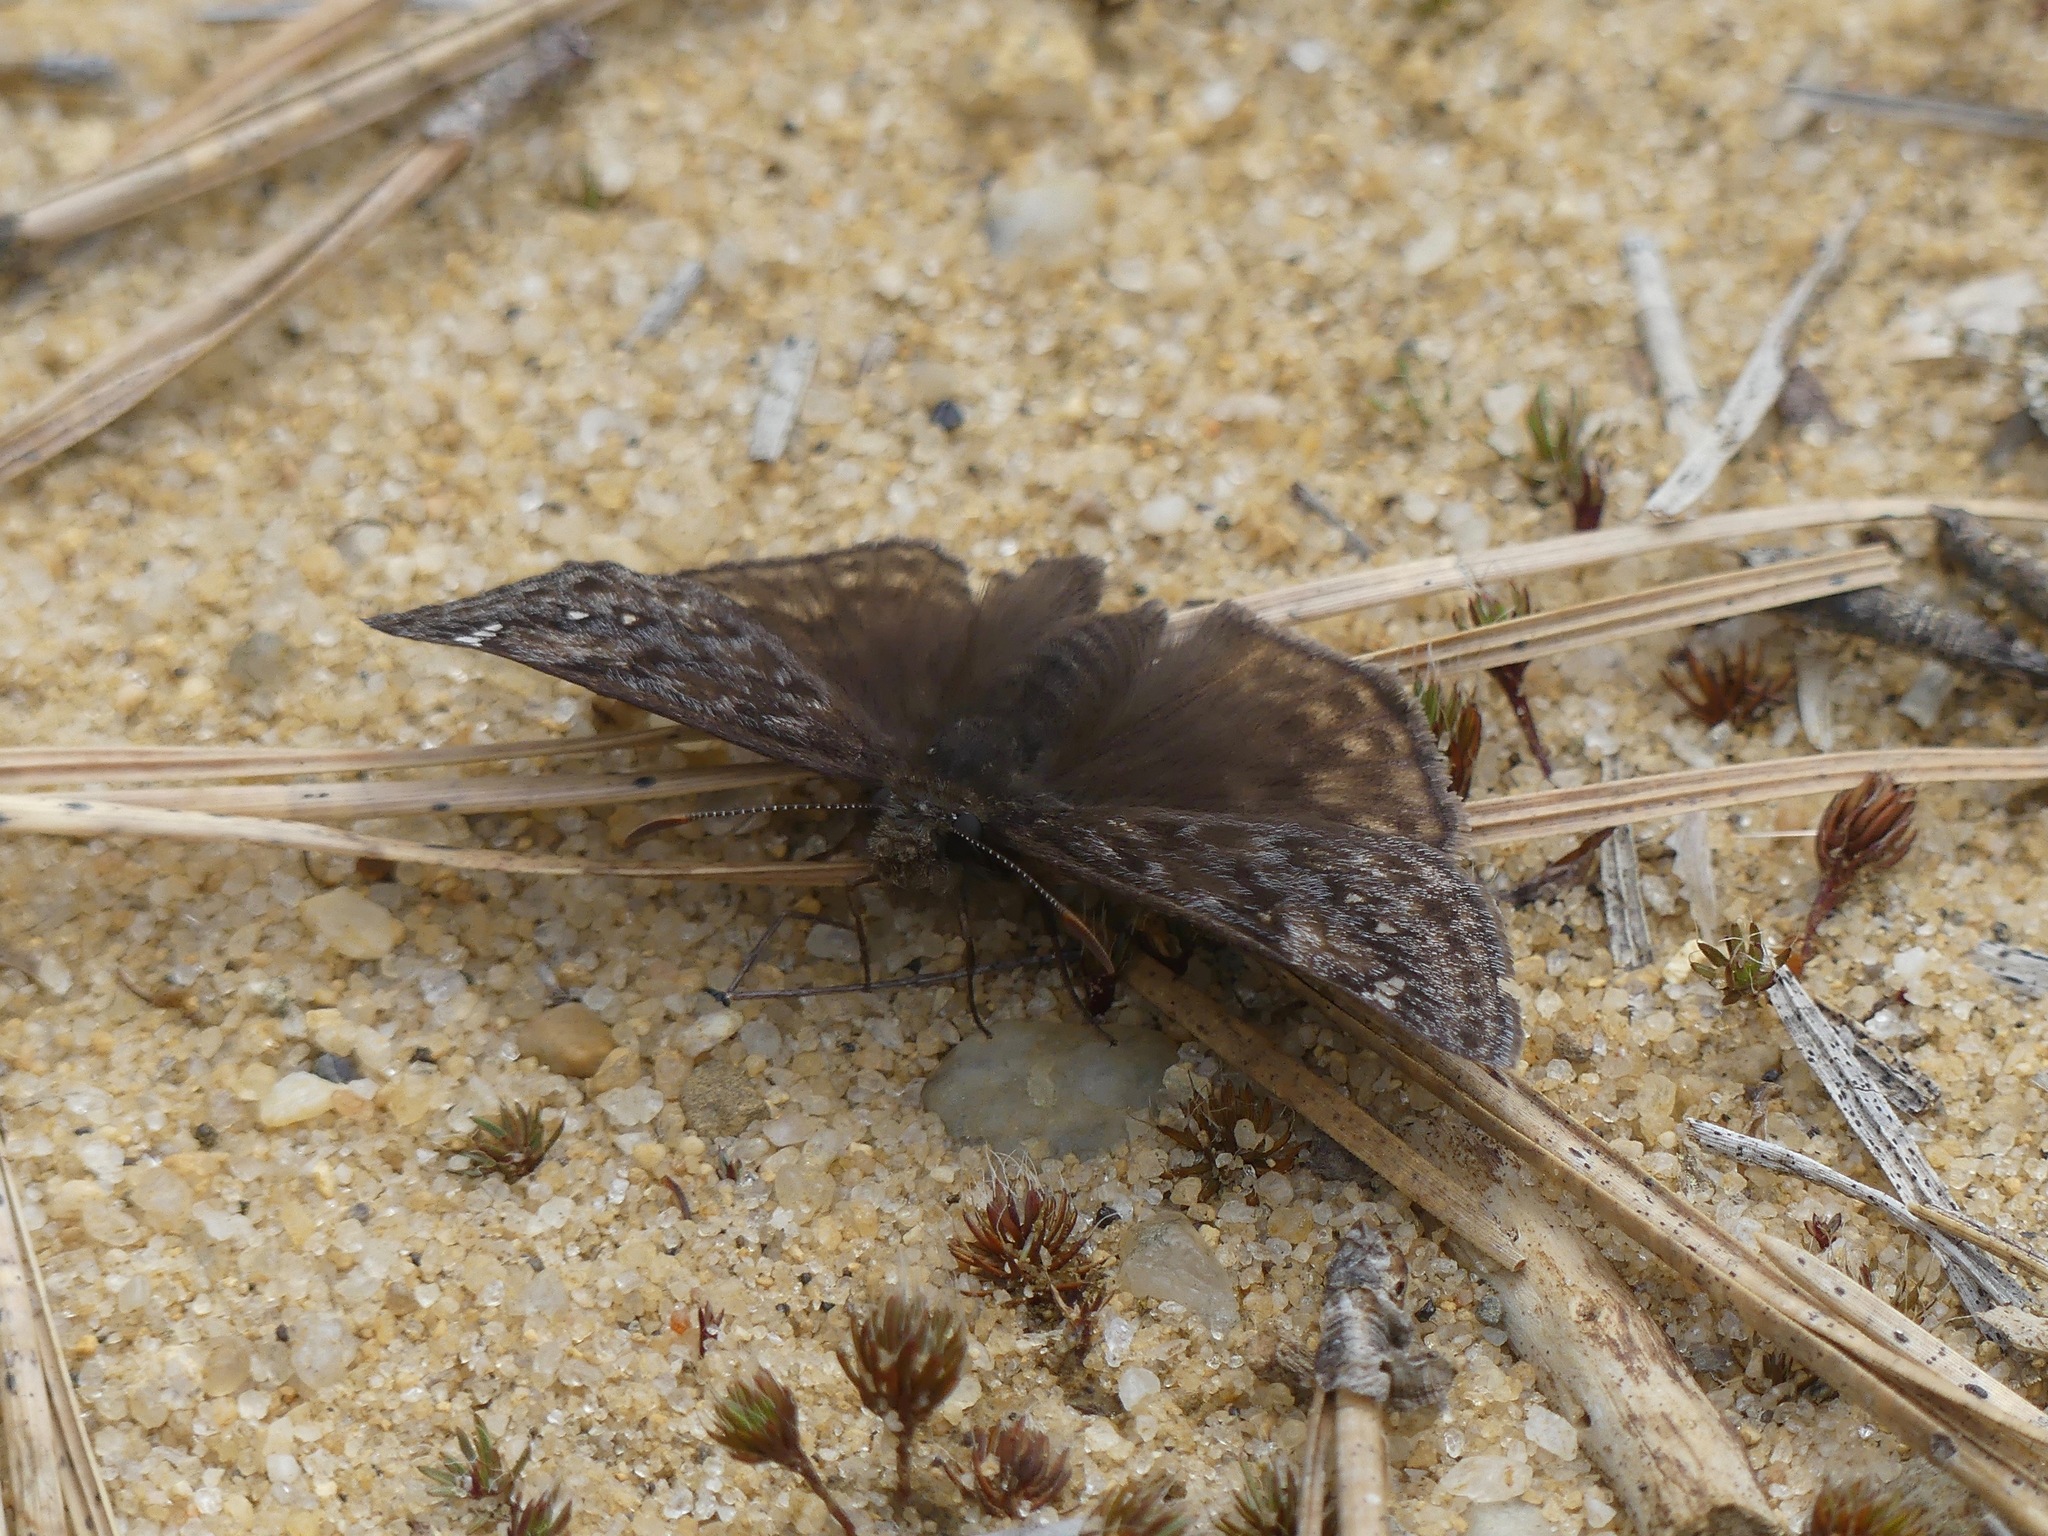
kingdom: Animalia
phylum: Arthropoda
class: Insecta
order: Lepidoptera
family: Hesperiidae
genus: Erynnis
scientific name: Erynnis juvenalis
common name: Juvenal's duskywing
